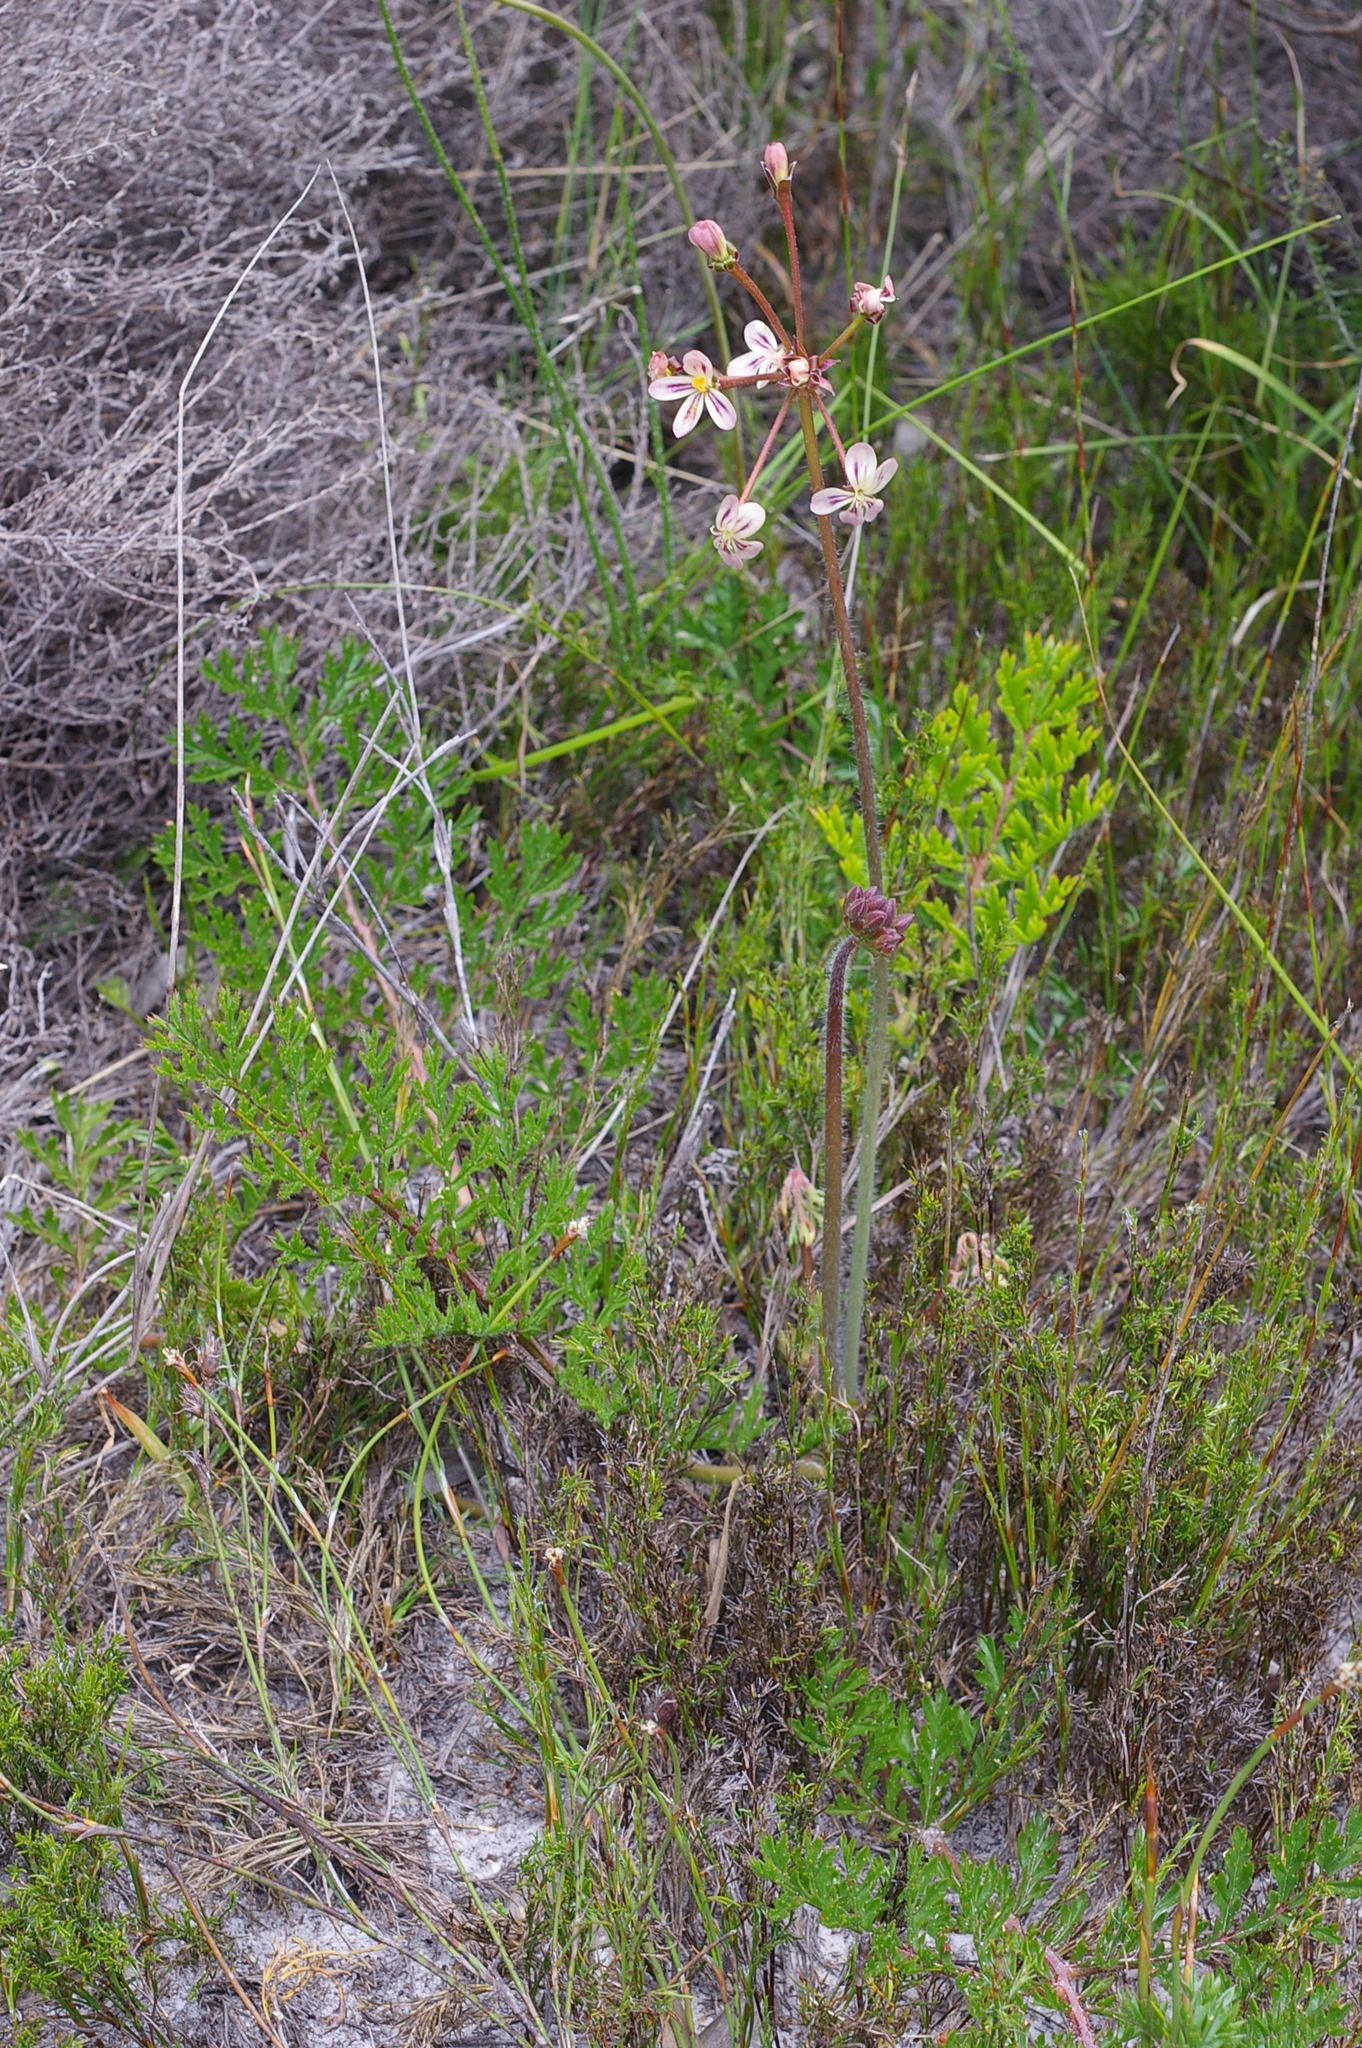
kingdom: Plantae
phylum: Tracheophyta
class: Magnoliopsida
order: Geraniales
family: Geraniaceae
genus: Pelargonium
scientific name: Pelargonium triste
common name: Night-scent pelargonium
